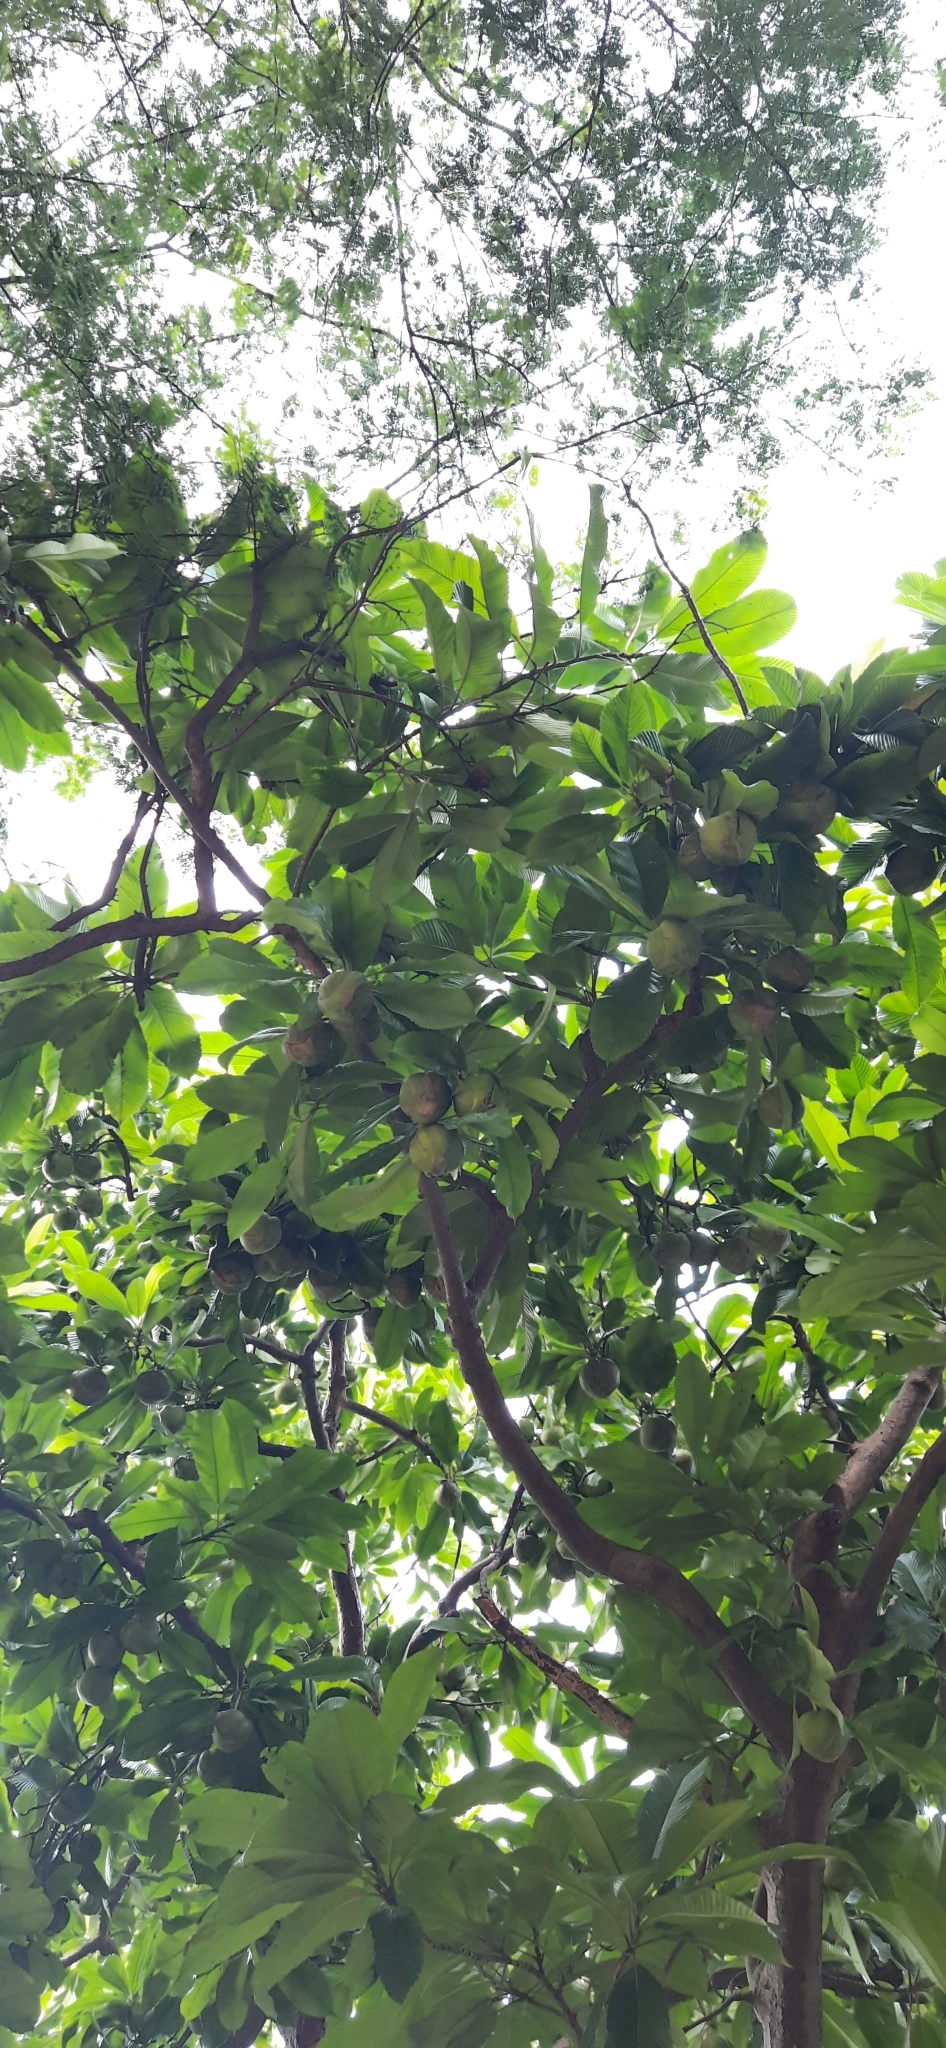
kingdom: Plantae
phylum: Tracheophyta
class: Magnoliopsida
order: Dilleniales
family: Dilleniaceae
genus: Dillenia
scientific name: Dillenia indica
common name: Elephant apple
